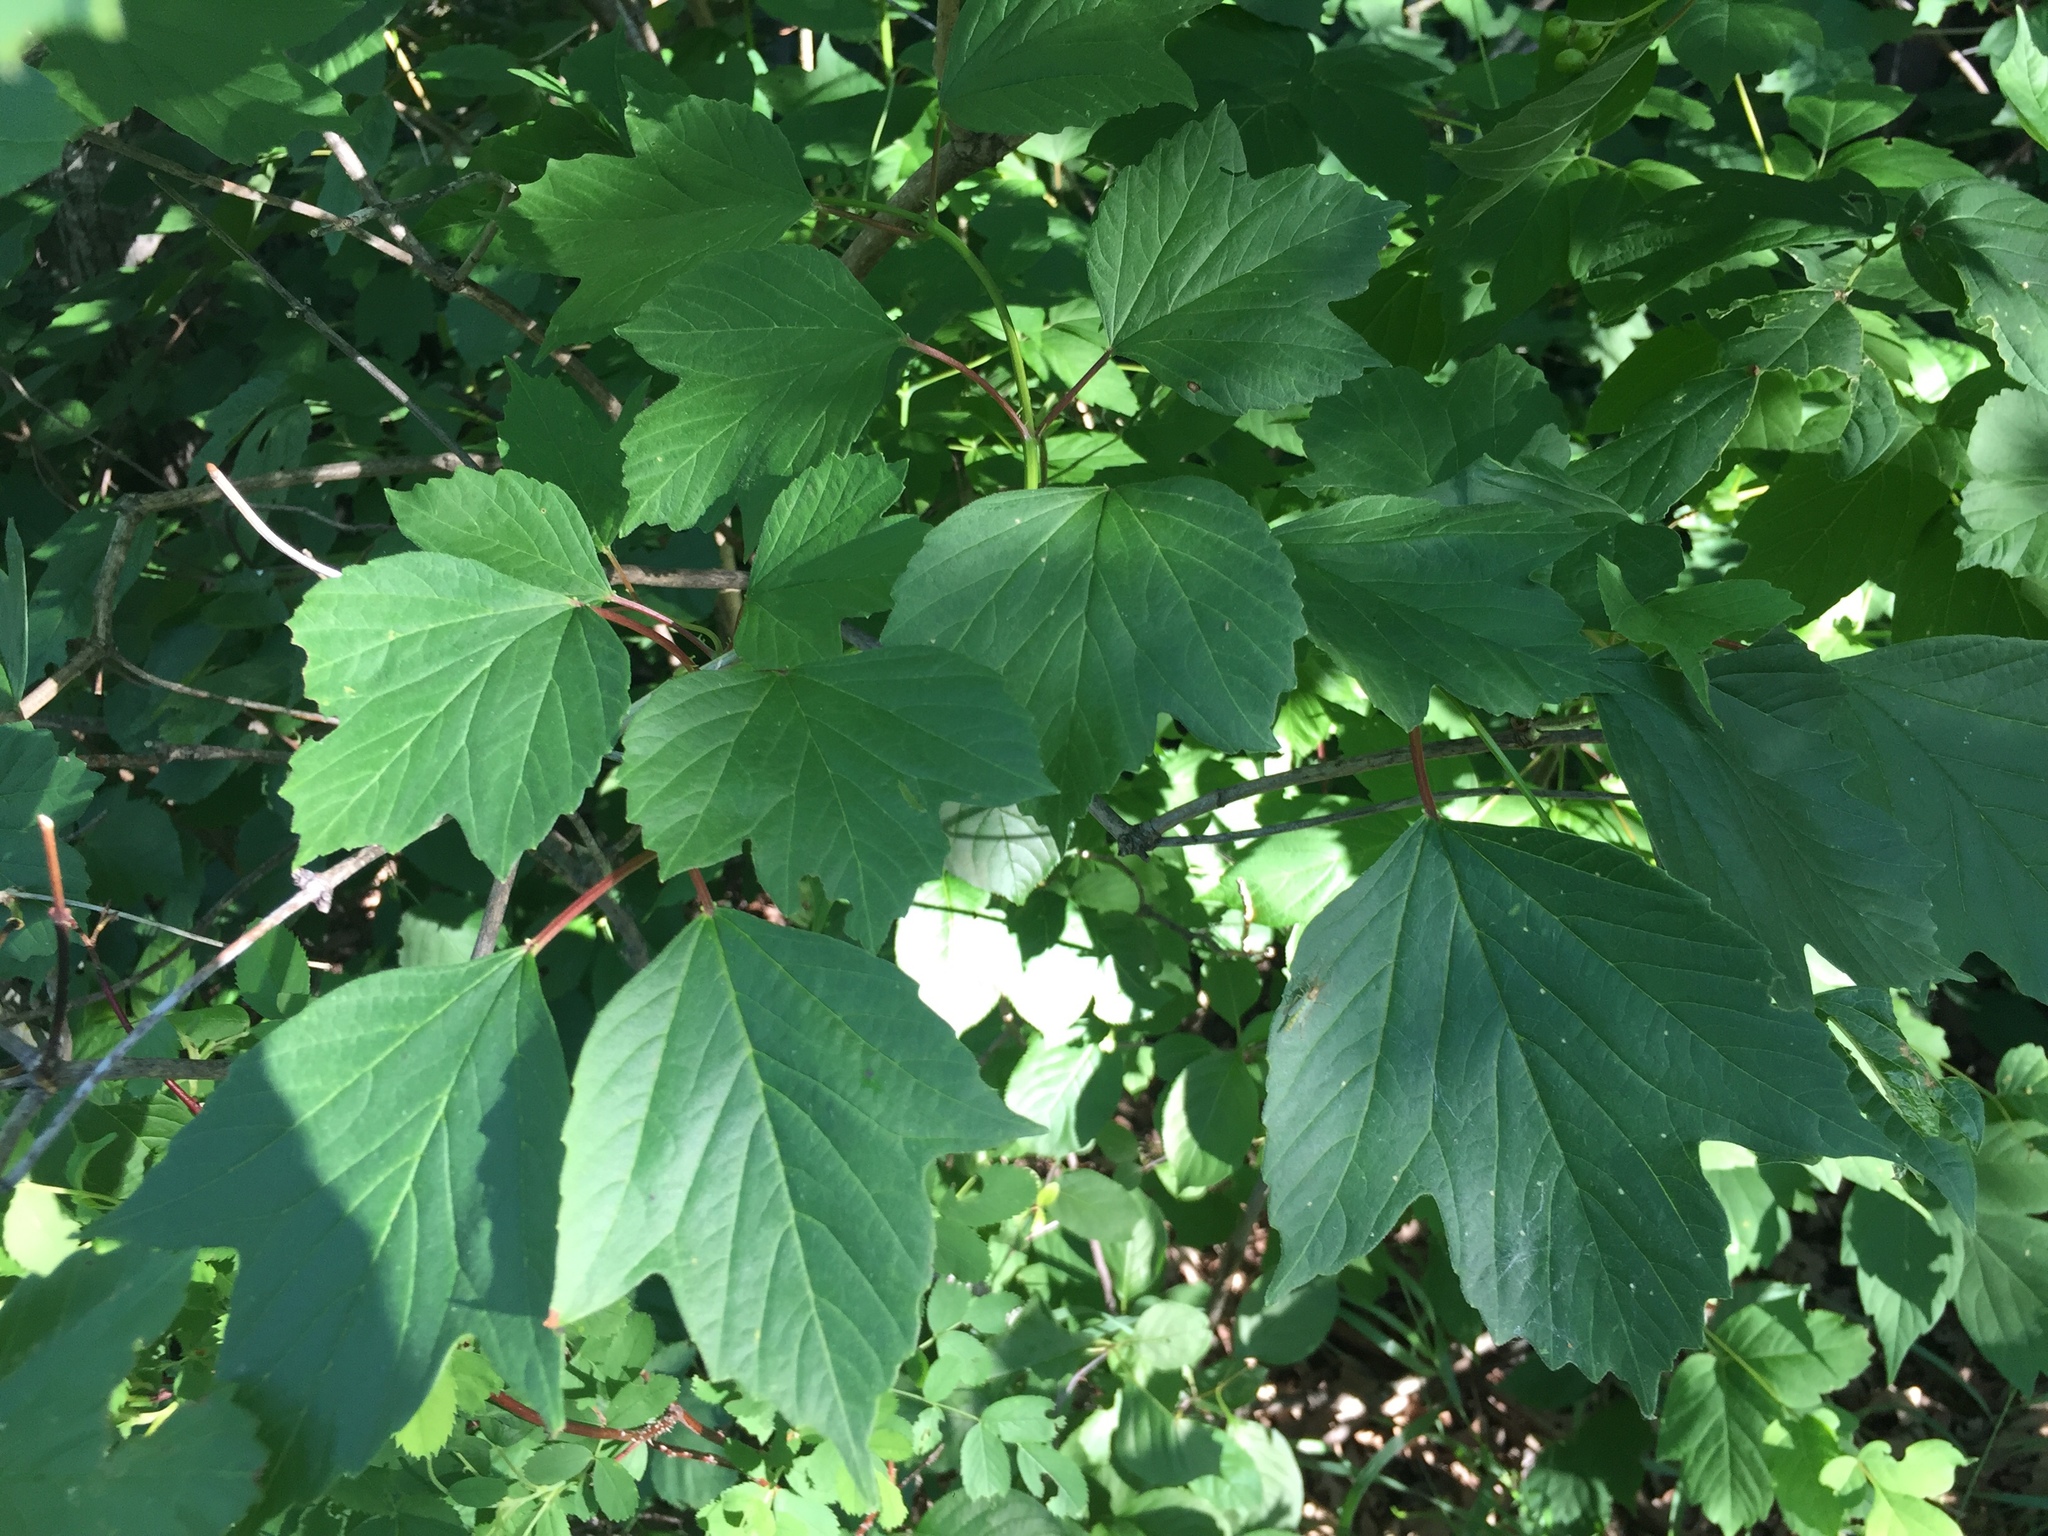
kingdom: Plantae
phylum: Tracheophyta
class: Magnoliopsida
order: Dipsacales
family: Viburnaceae
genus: Viburnum
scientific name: Viburnum trilobum
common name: American cranberrybush
